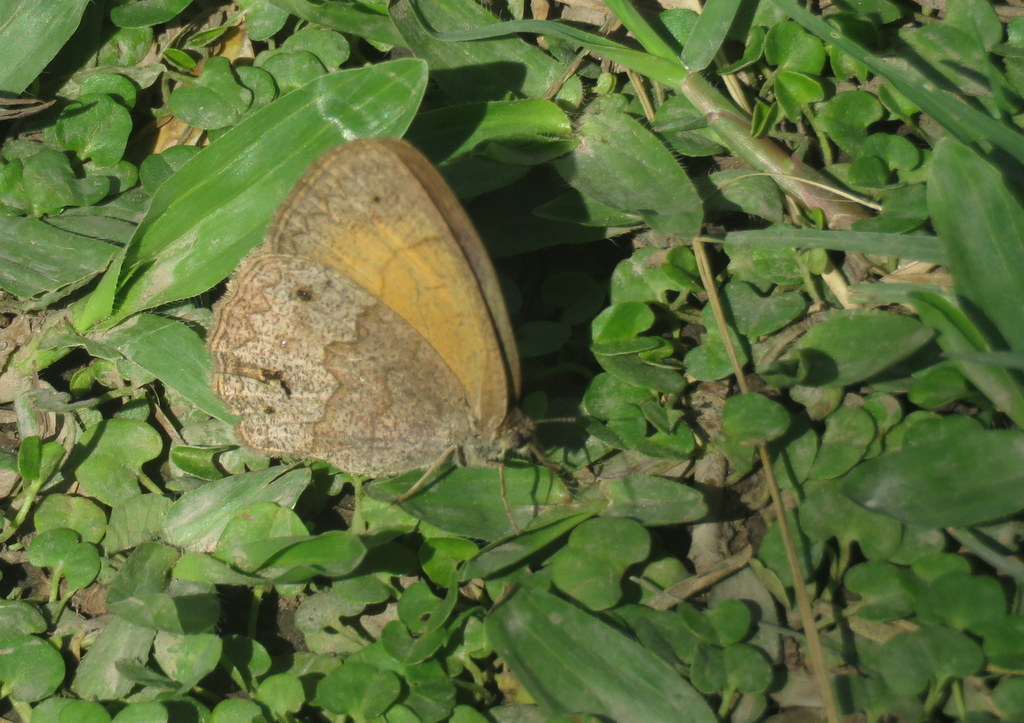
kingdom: Animalia
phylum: Arthropoda
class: Insecta
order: Lepidoptera
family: Nymphalidae
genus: Yphthimoides
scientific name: Yphthimoides celmis
